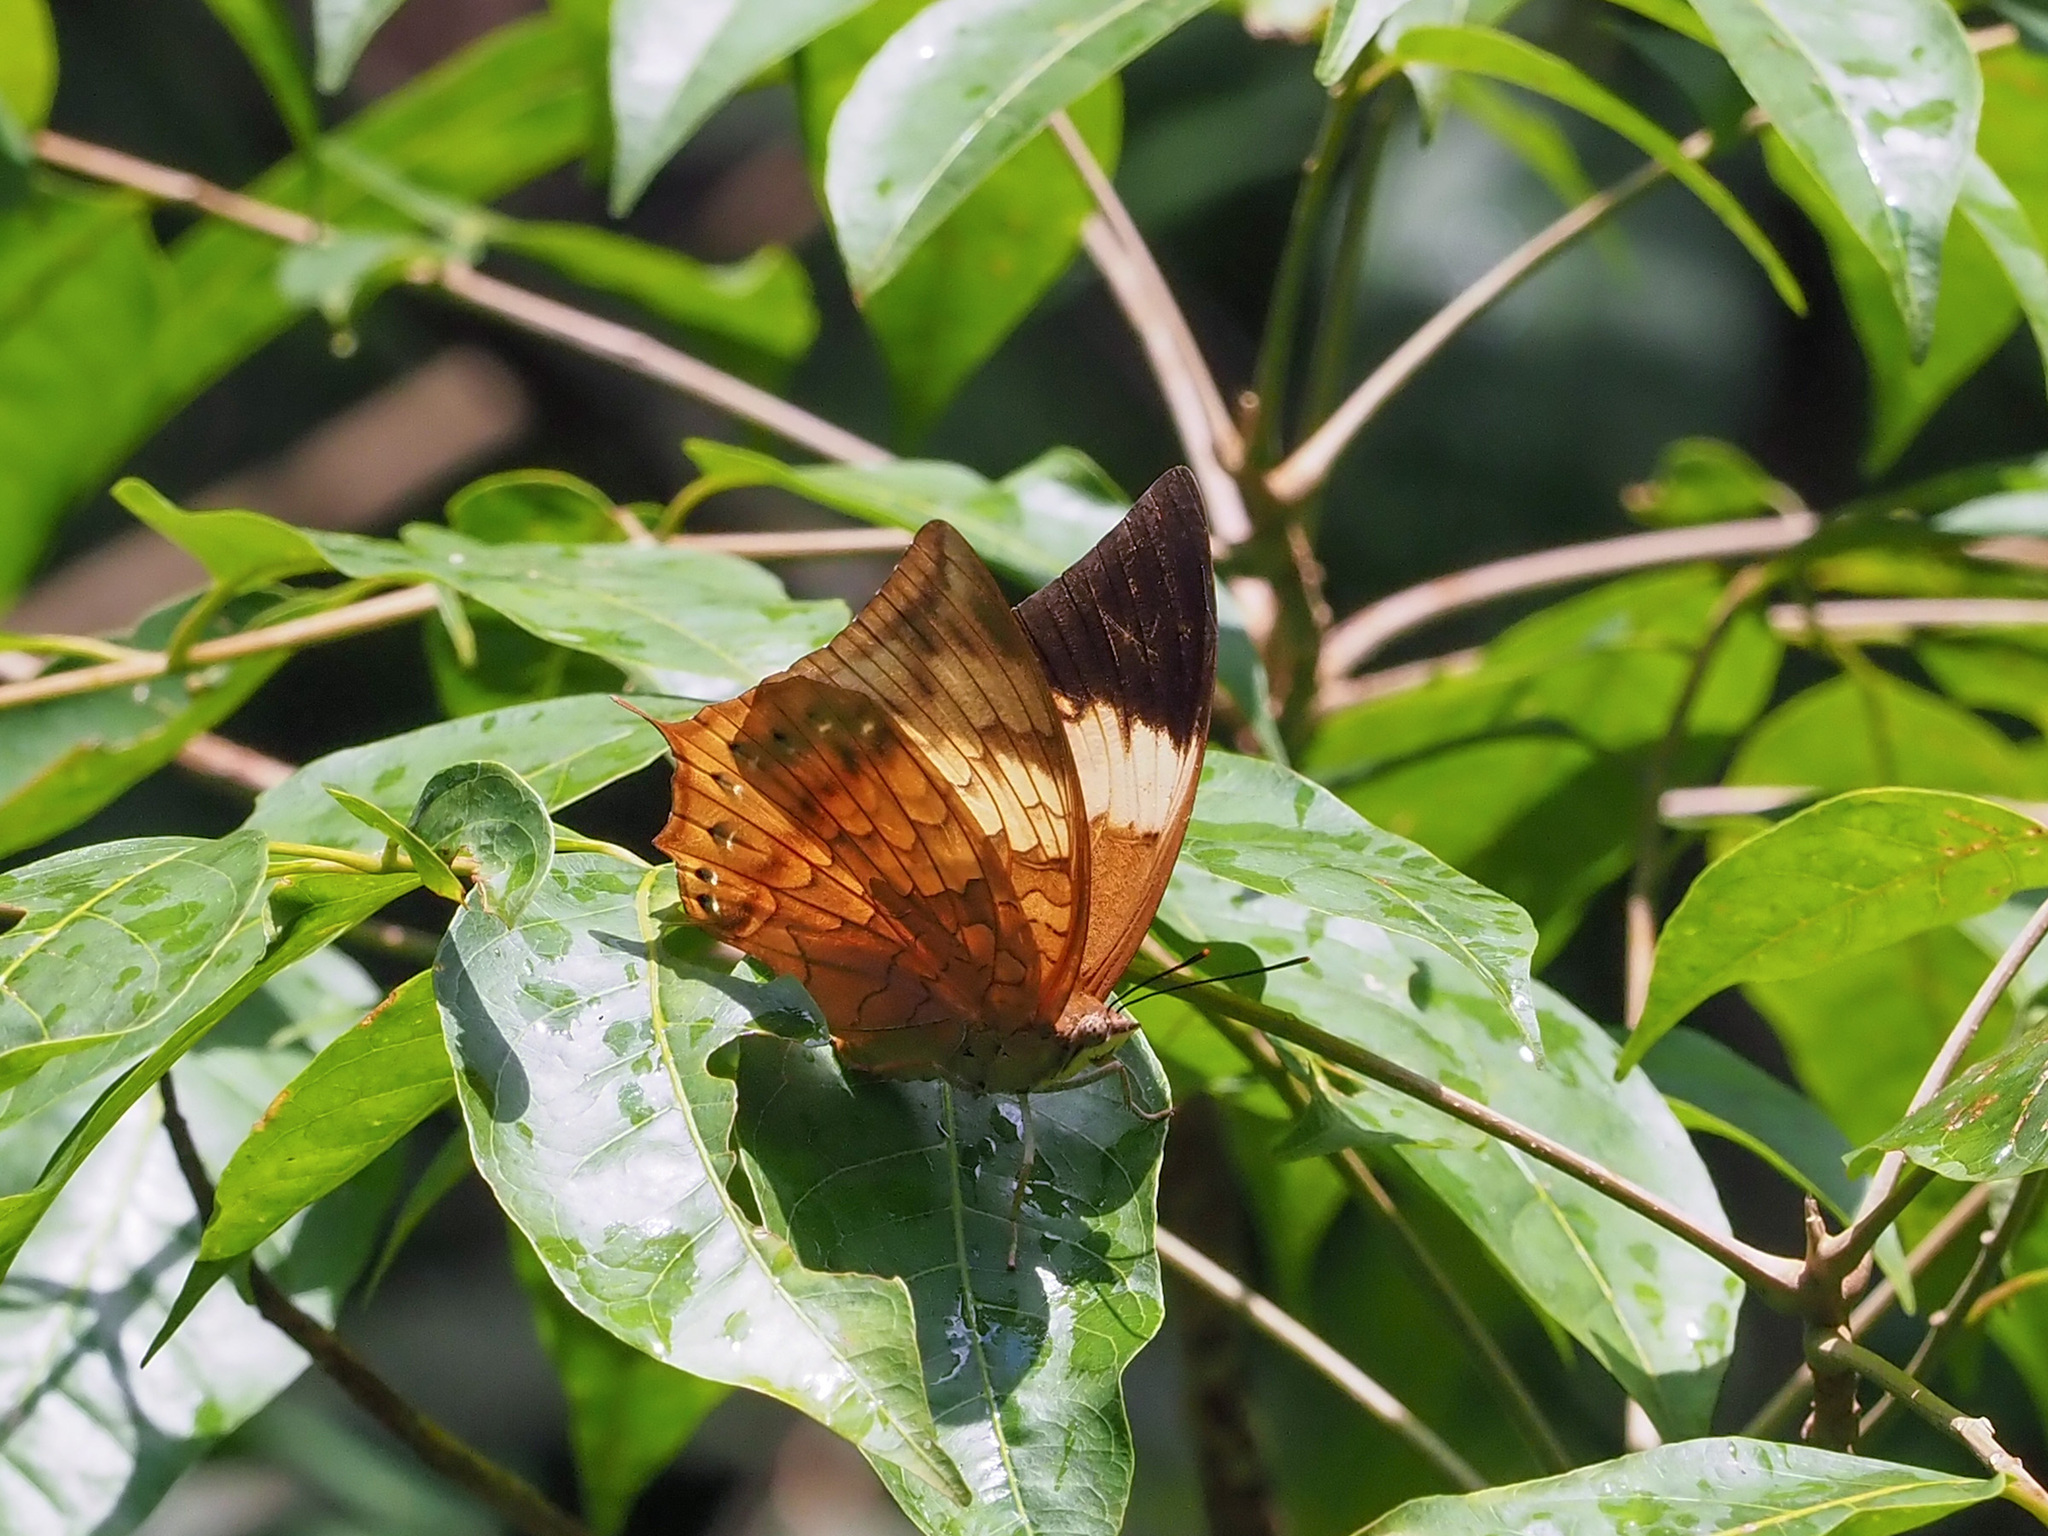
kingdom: Animalia
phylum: Arthropoda
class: Insecta
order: Lepidoptera
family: Nymphalidae
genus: Charaxes
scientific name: Charaxes bernardus
